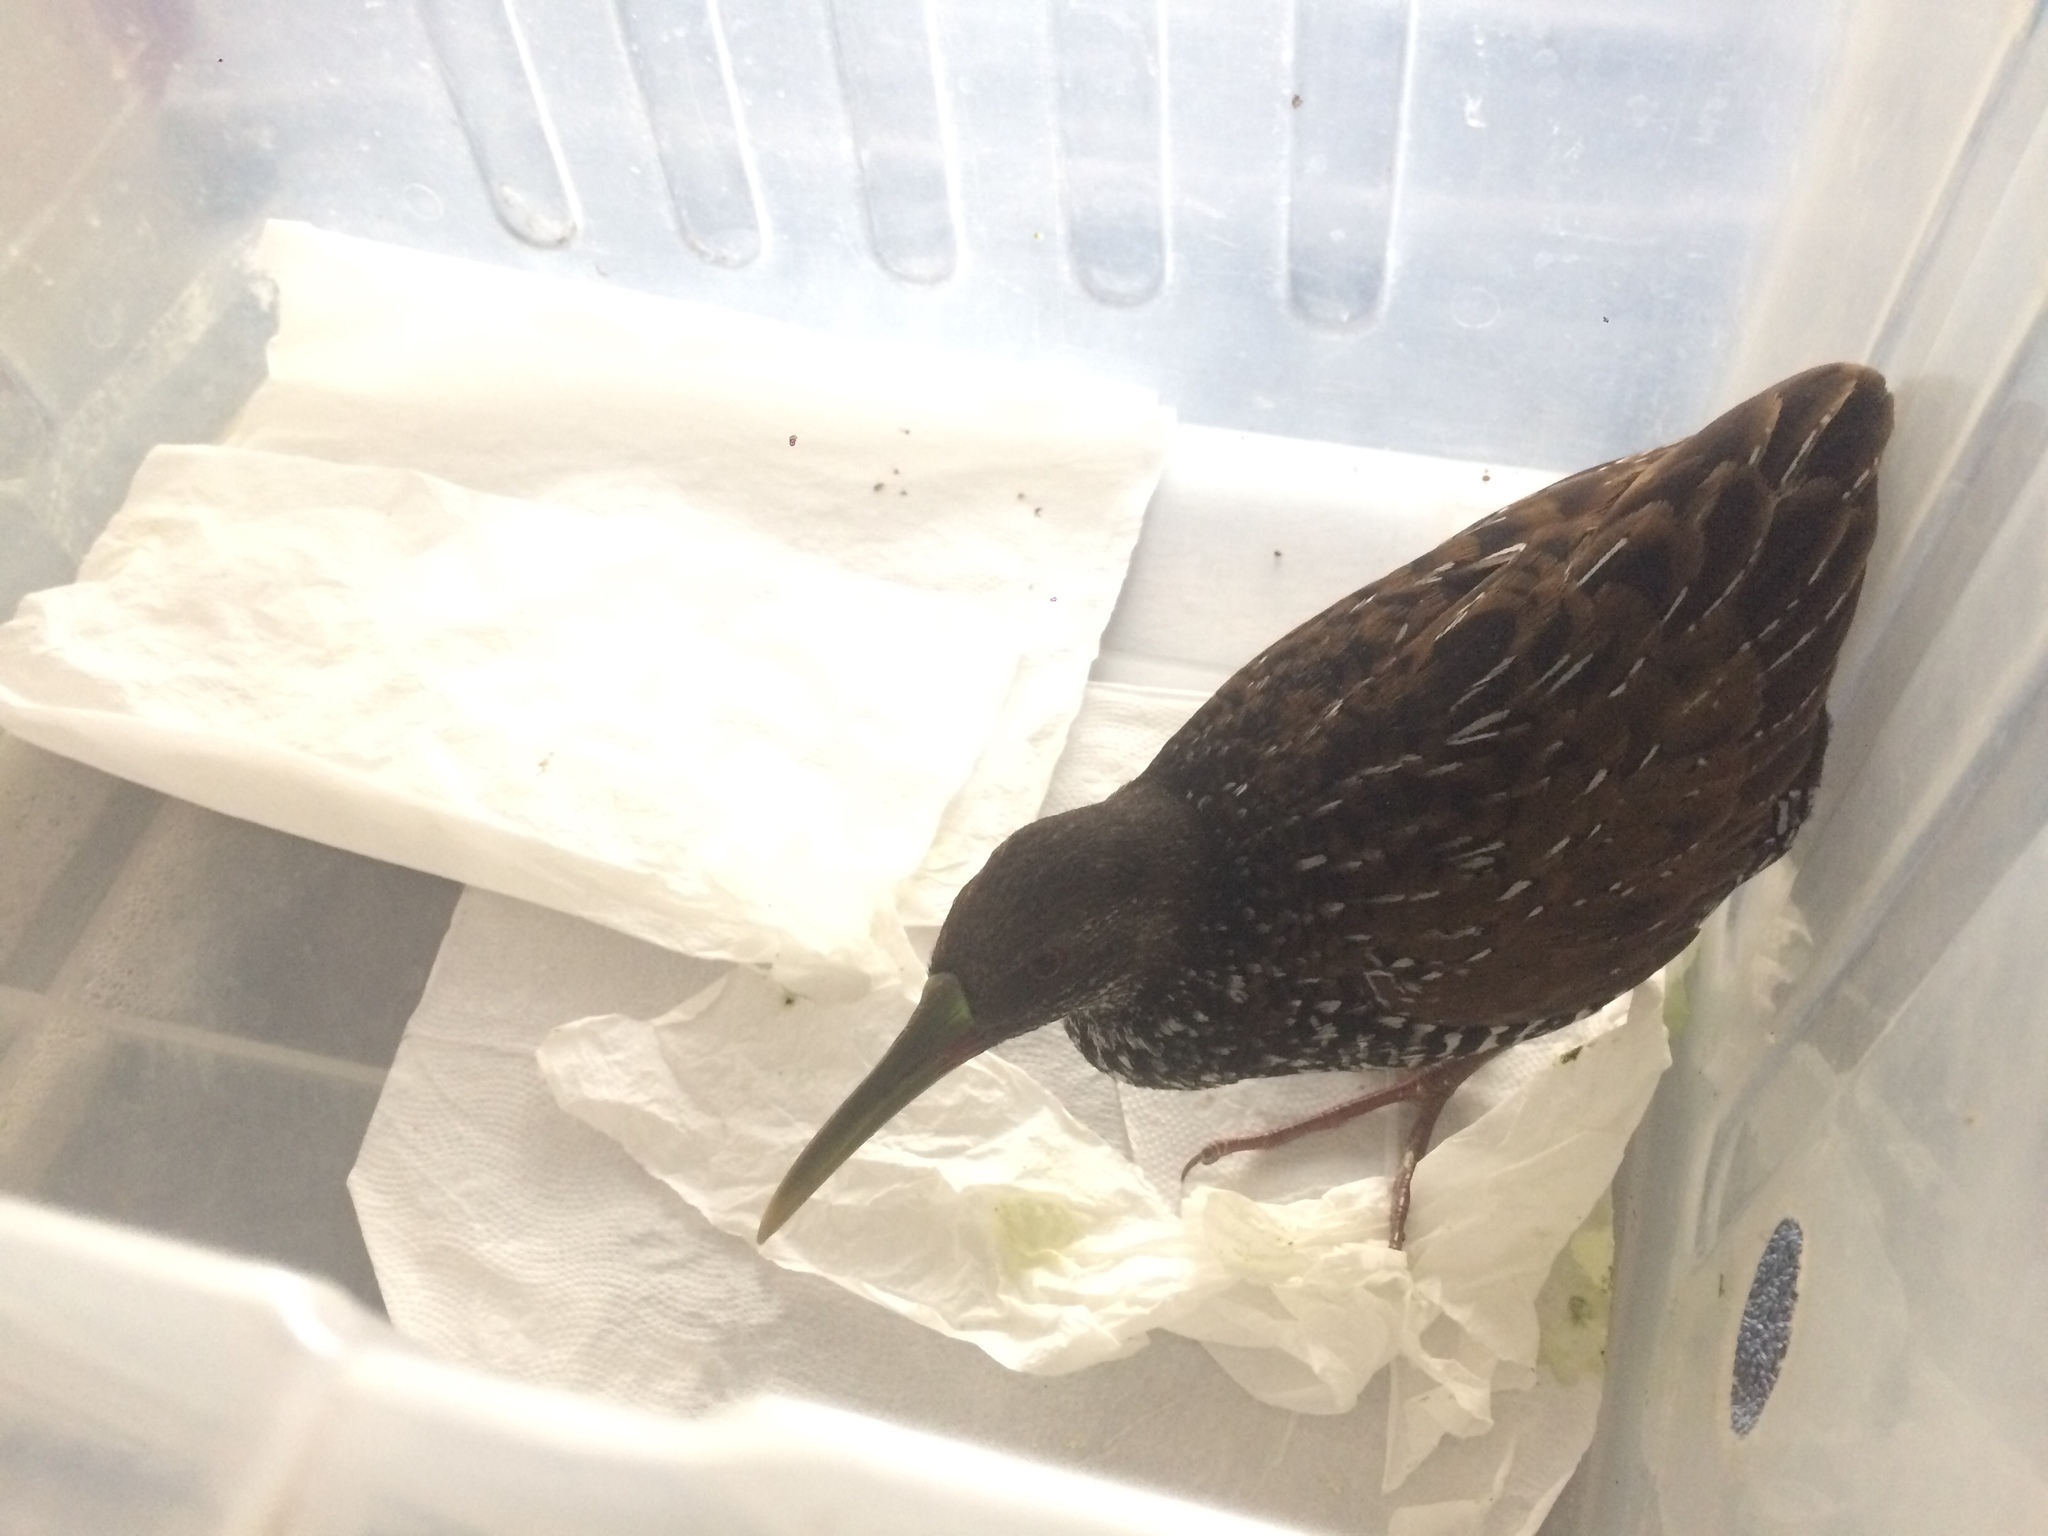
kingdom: Animalia
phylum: Chordata
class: Aves
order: Gruiformes
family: Rallidae
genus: Pardirallus
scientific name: Pardirallus maculatus
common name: Spotted rail
